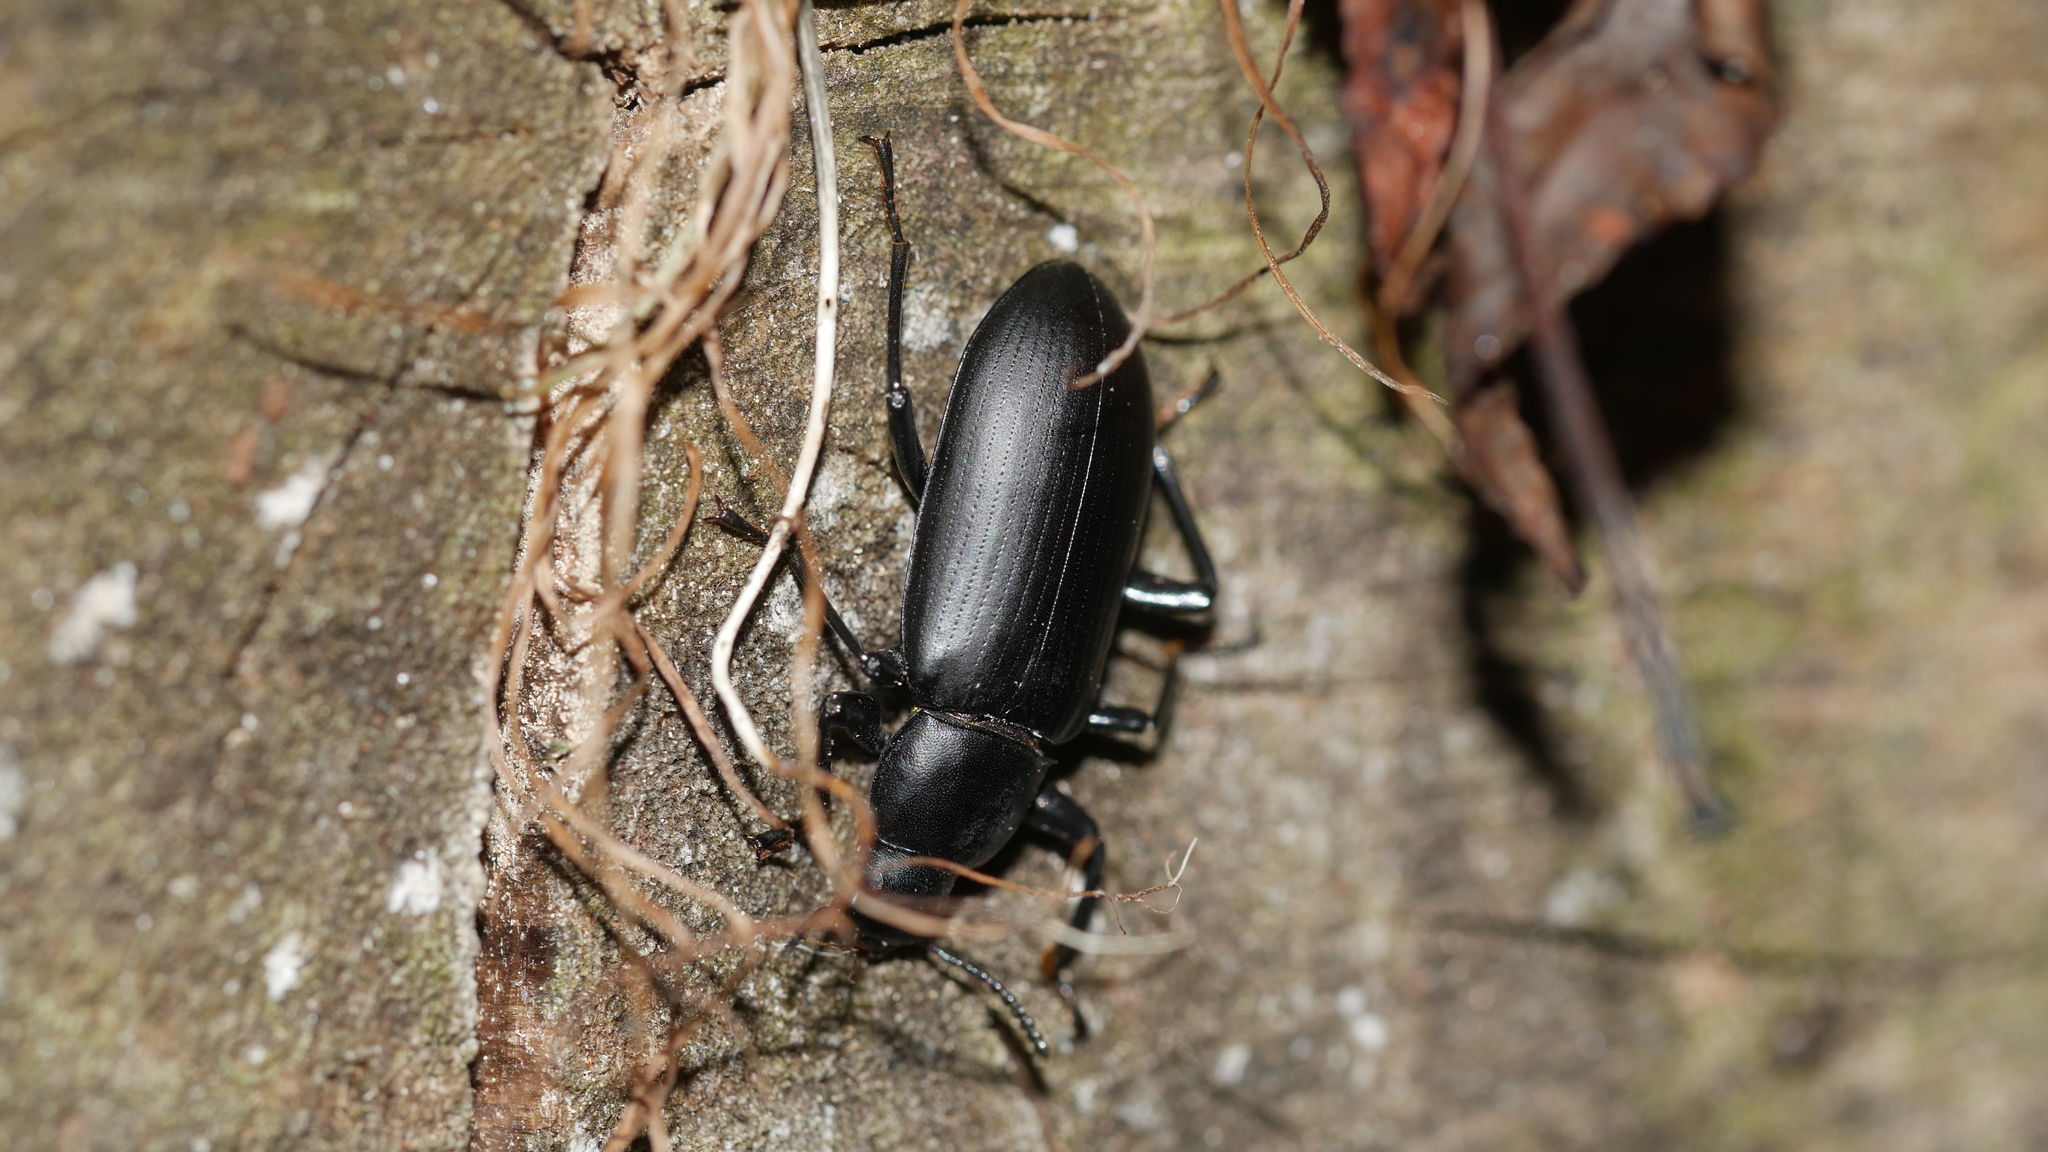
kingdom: Animalia
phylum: Arthropoda
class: Insecta
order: Coleoptera
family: Tenebrionidae
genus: Alobates
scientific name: Alobates
